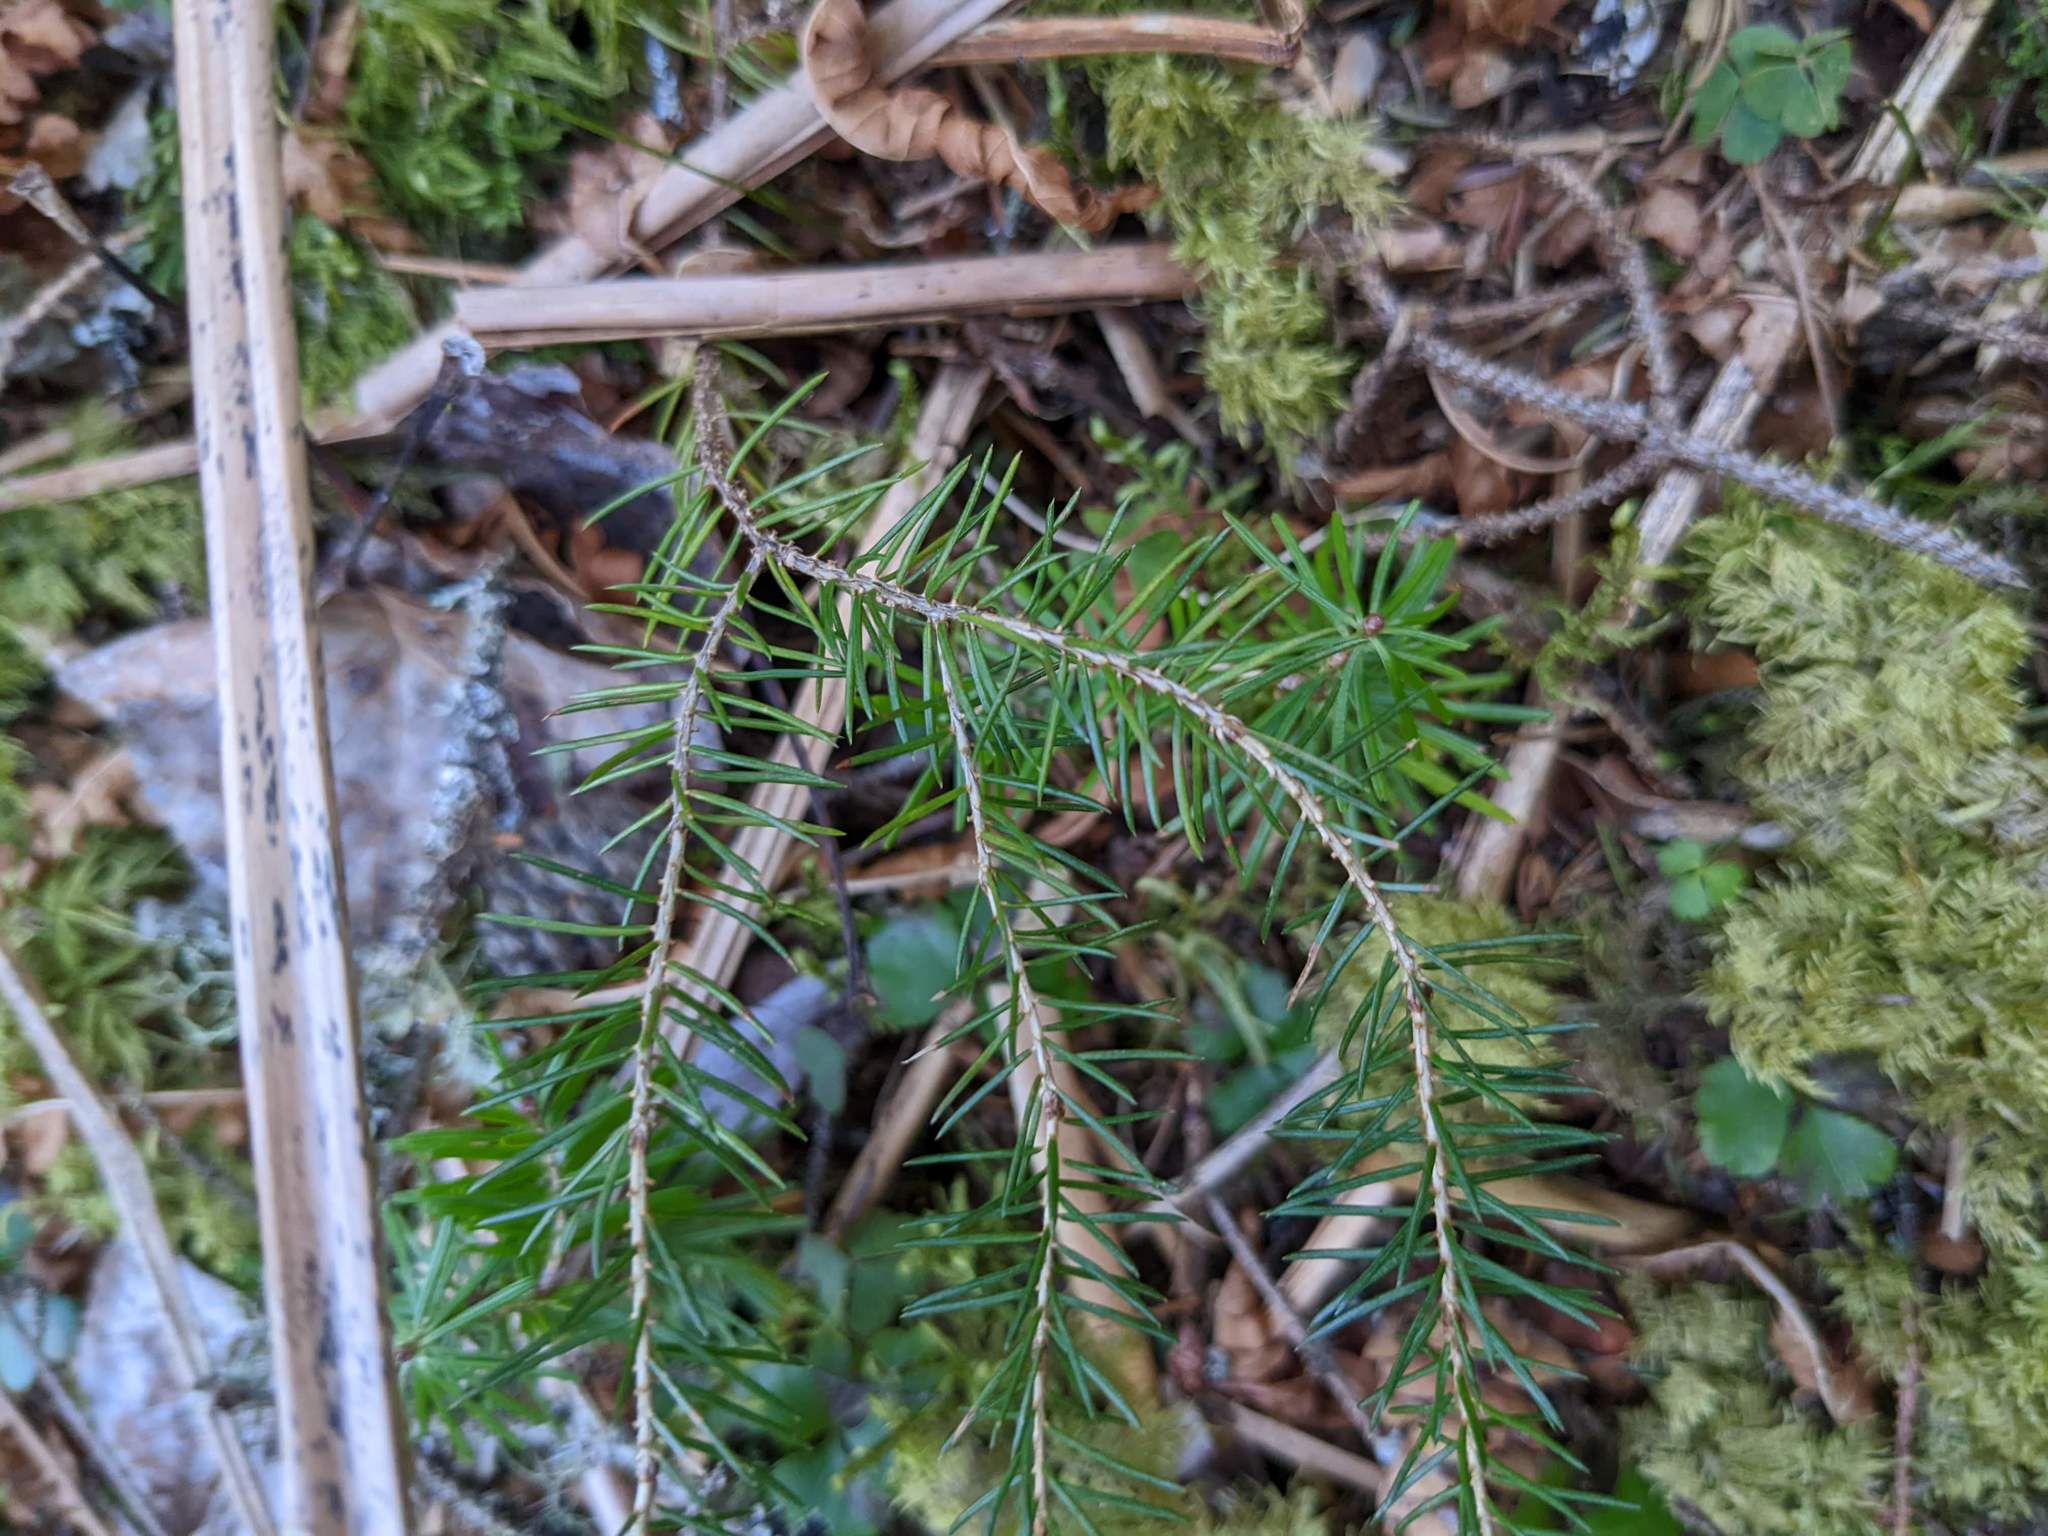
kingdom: Plantae
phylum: Tracheophyta
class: Pinopsida
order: Pinales
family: Pinaceae
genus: Picea
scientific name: Picea rubens
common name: Red spruce
